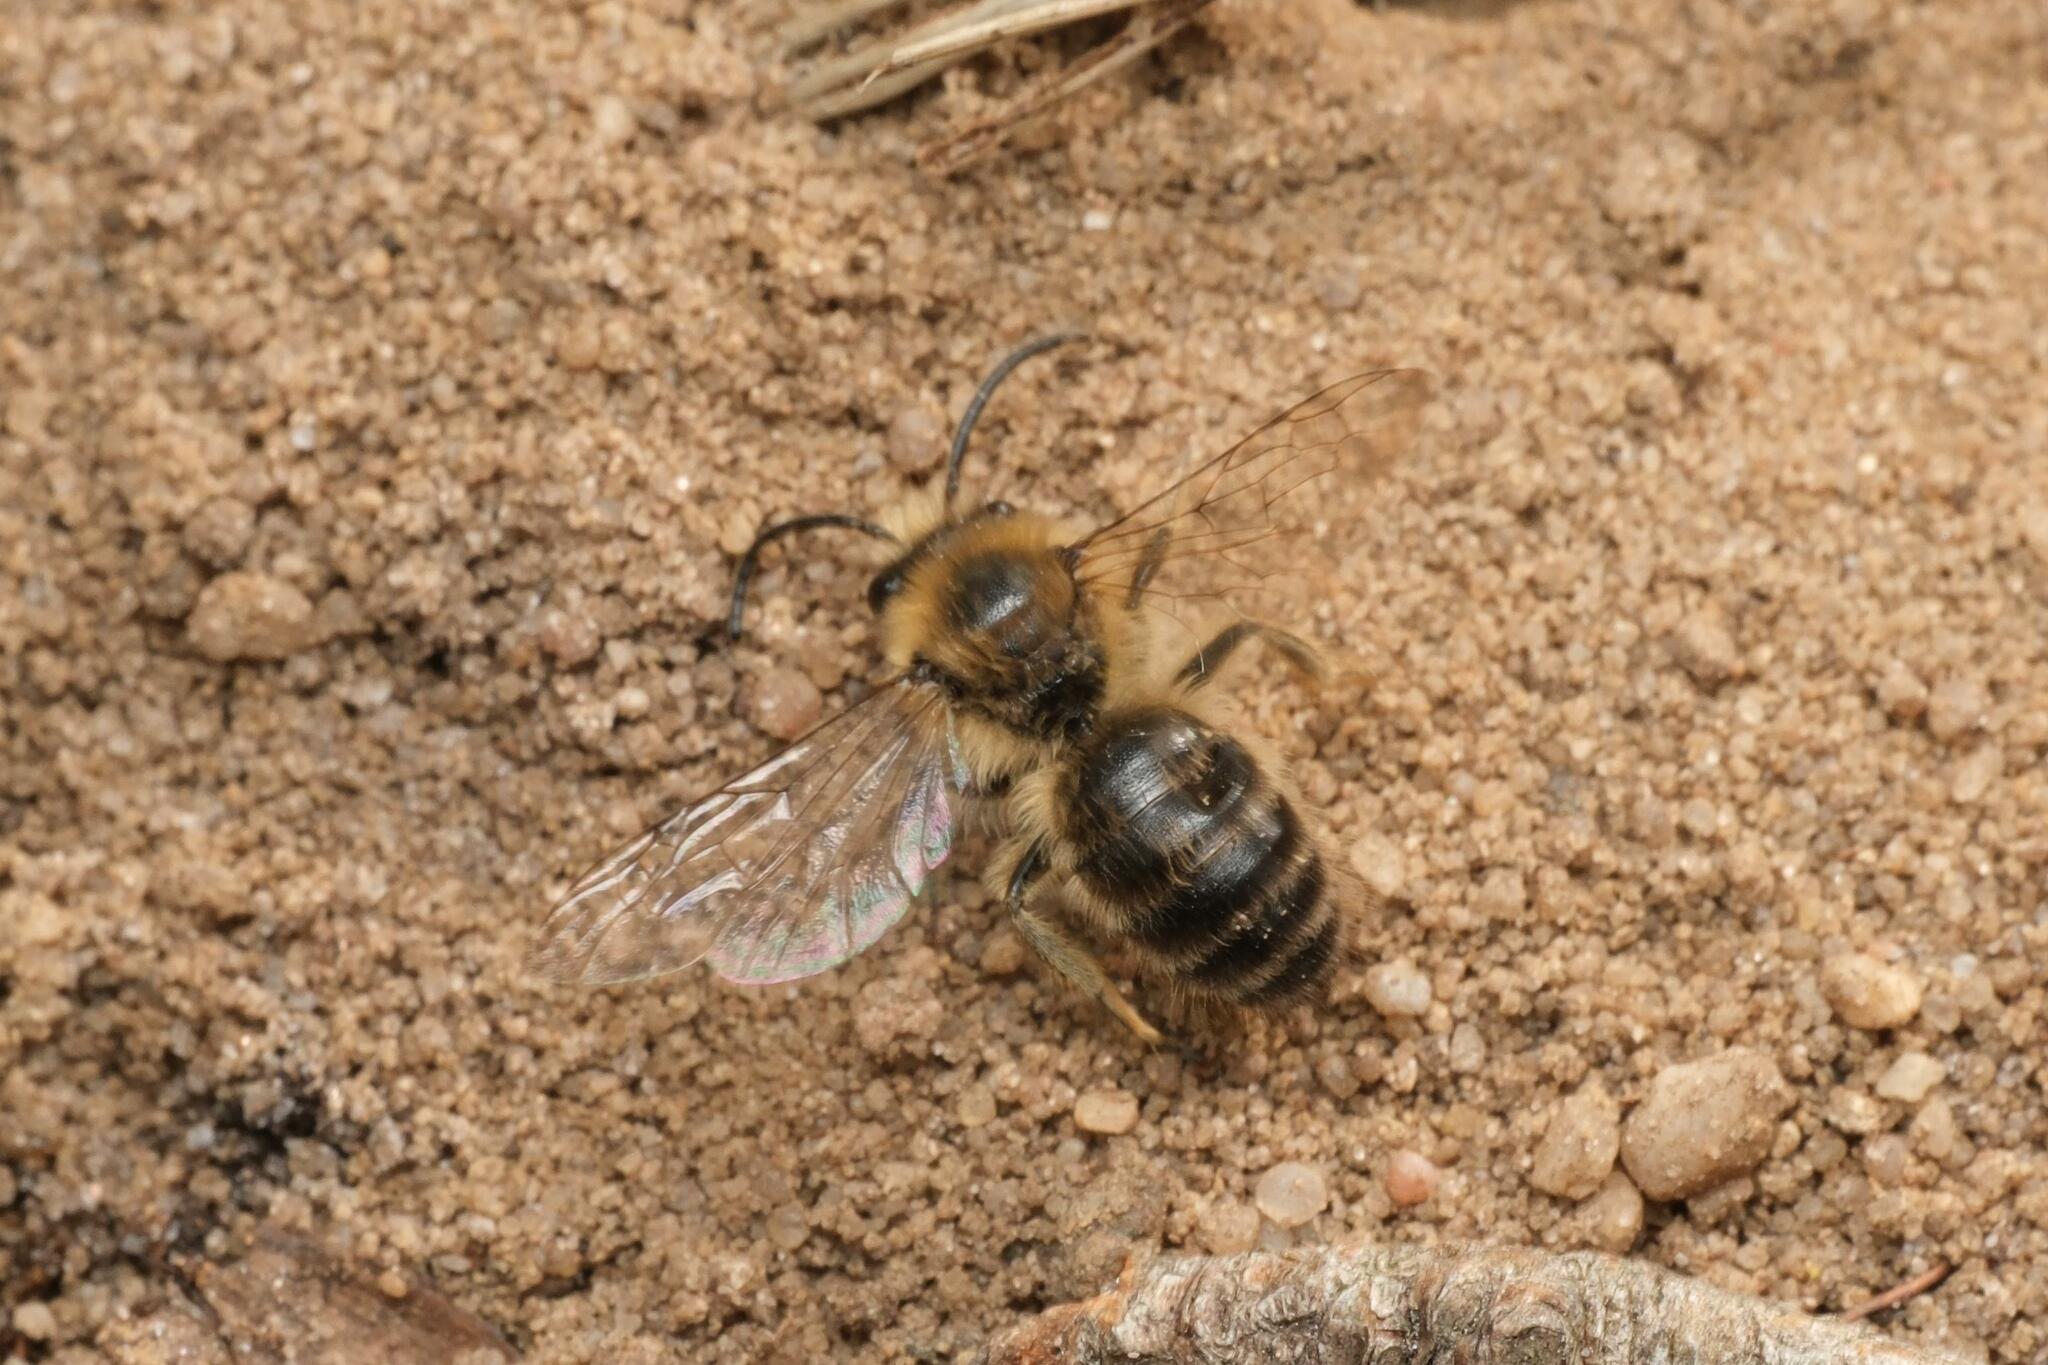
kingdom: Animalia
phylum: Arthropoda
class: Insecta
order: Hymenoptera
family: Colletidae
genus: Colletes
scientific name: Colletes cunicularius
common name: Early colletes
